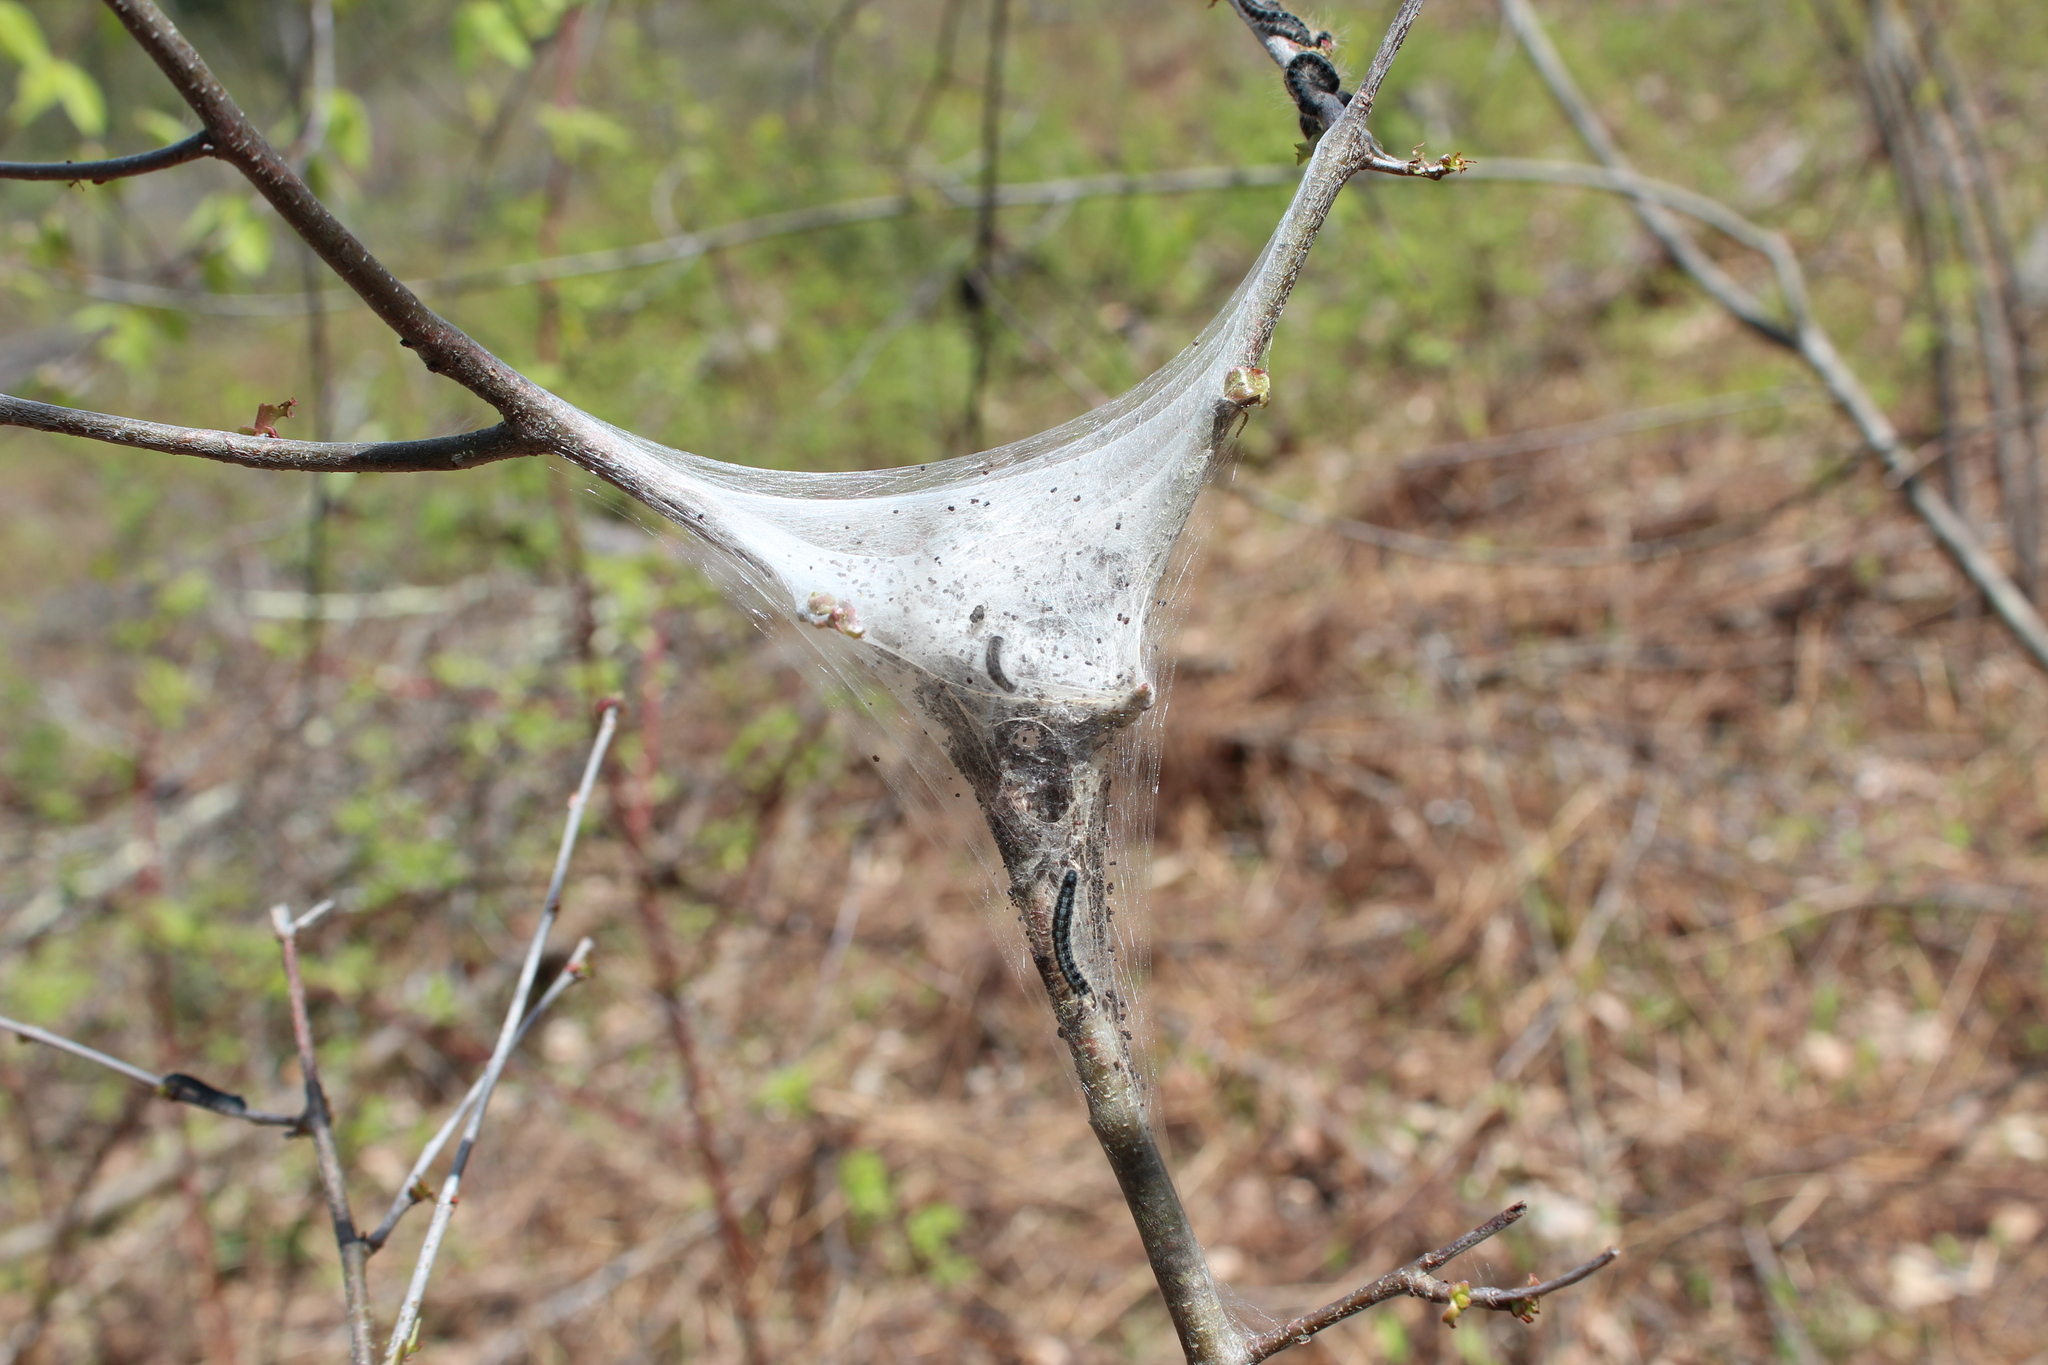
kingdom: Animalia
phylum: Arthropoda
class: Insecta
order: Lepidoptera
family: Lasiocampidae
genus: Malacosoma
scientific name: Malacosoma americana
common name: Eastern tent caterpillar moth
